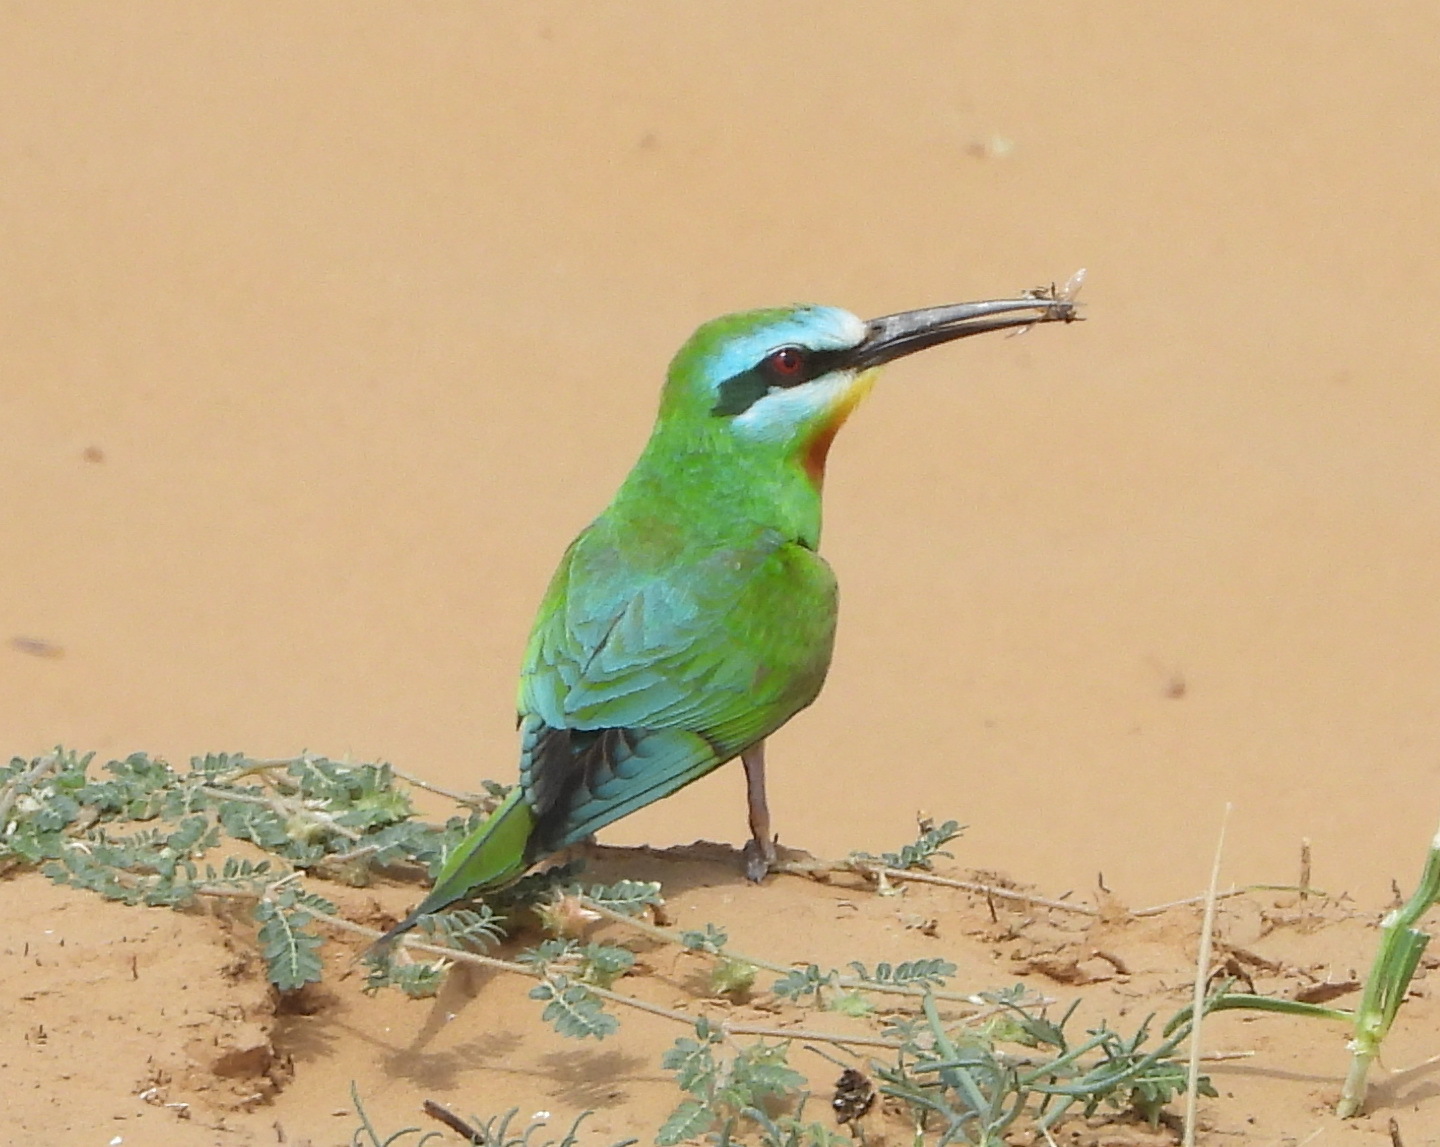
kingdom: Animalia
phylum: Chordata
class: Aves
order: Coraciiformes
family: Meropidae
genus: Merops
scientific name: Merops persicus
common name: Blue-cheeked bee-eater
